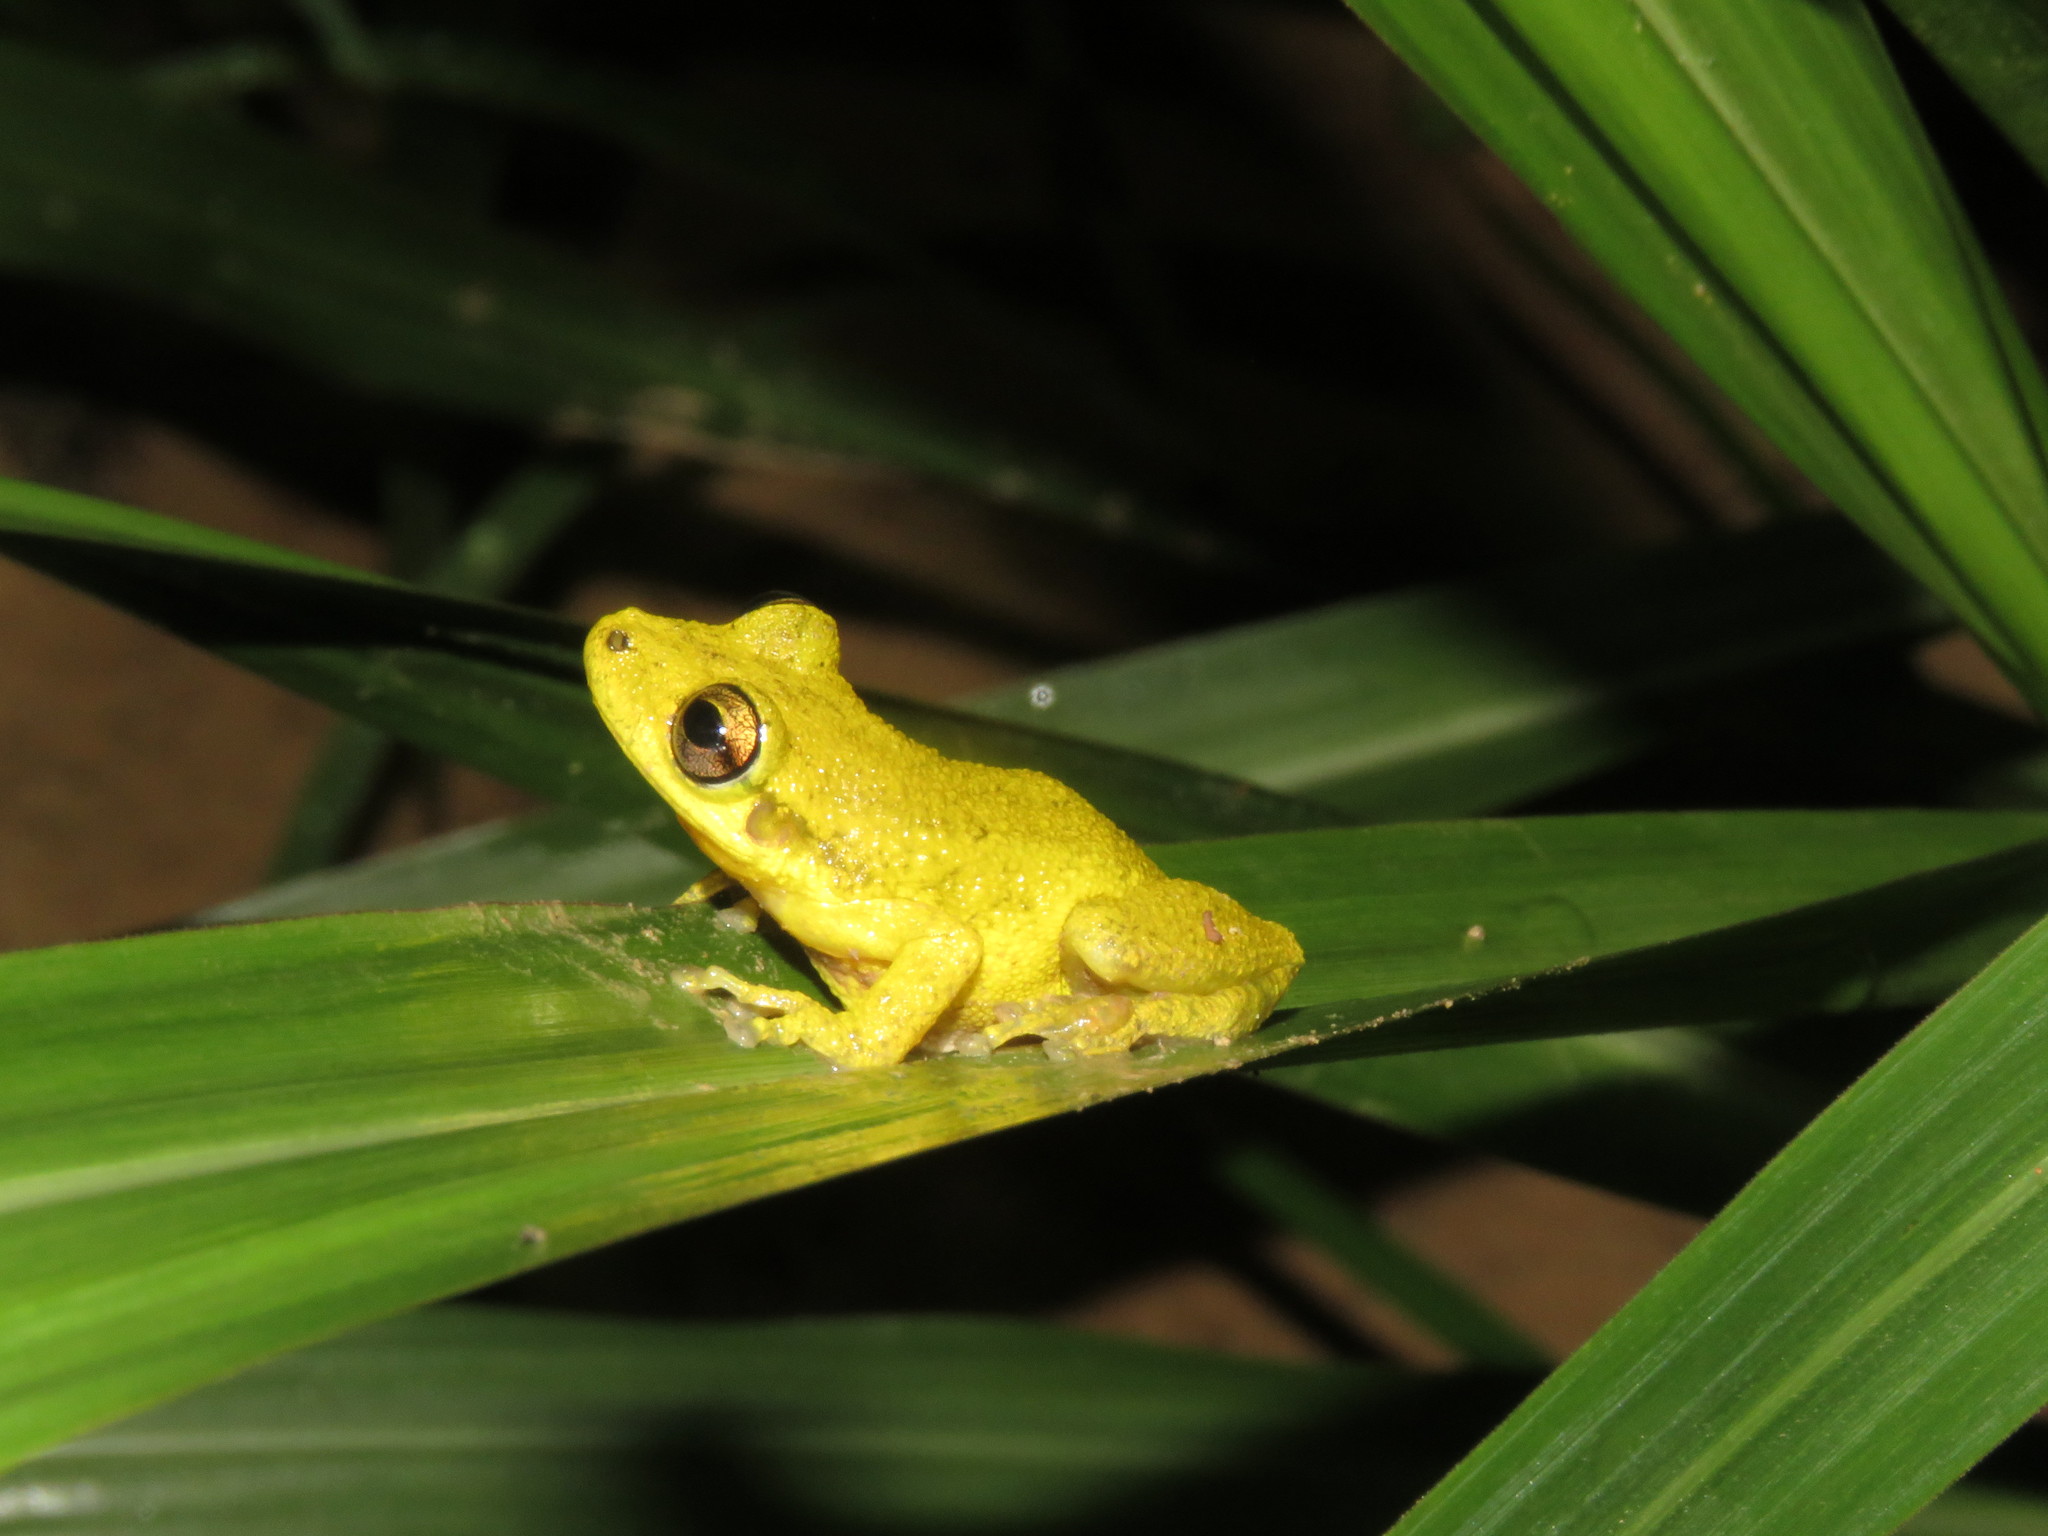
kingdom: Animalia
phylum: Chordata
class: Amphibia
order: Anura
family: Hylidae
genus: Scinax
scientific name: Scinax ruber
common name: Red snouted treefrog
